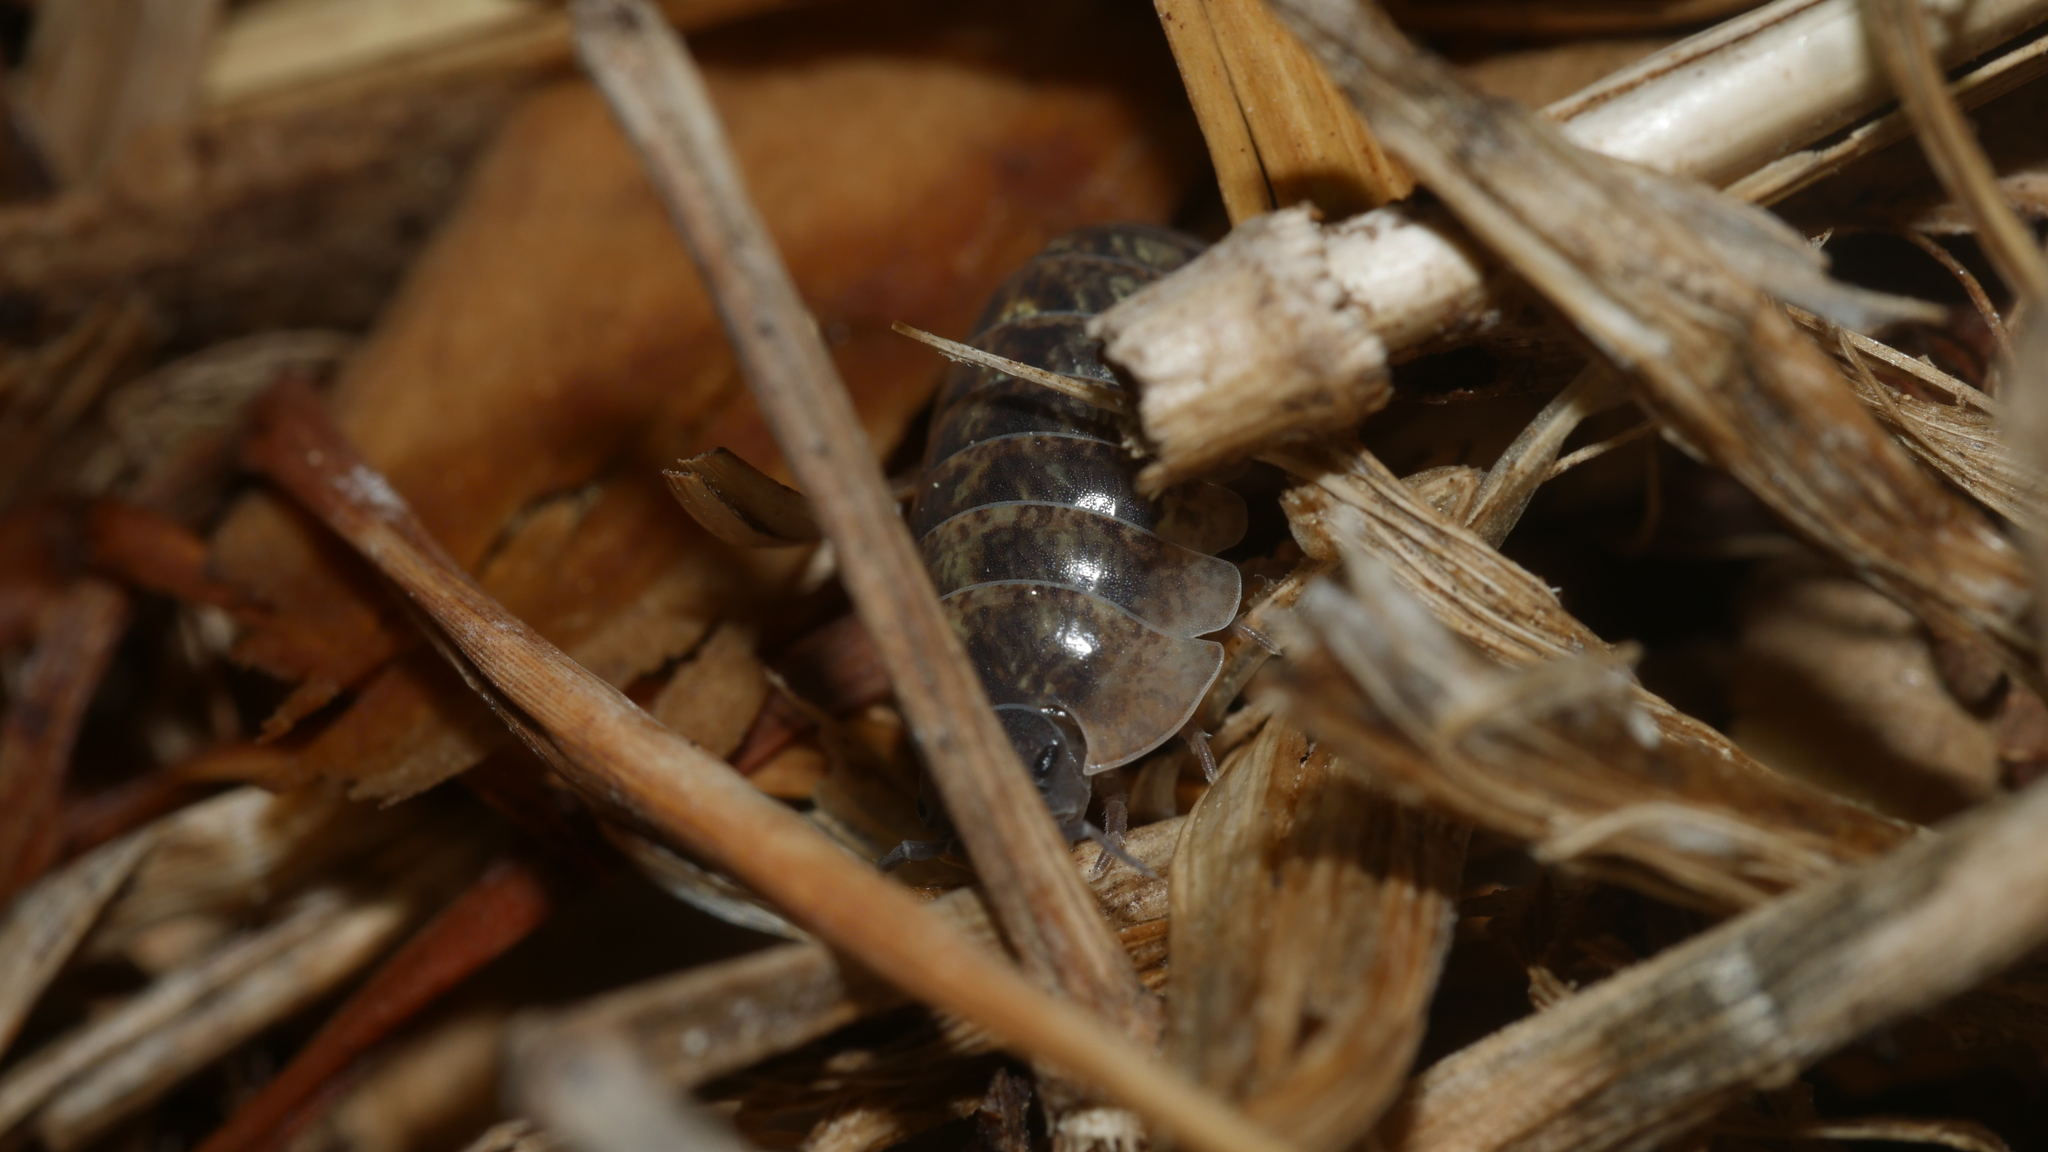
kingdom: Animalia
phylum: Arthropoda
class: Malacostraca
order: Isopoda
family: Armadillidiidae
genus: Armadillidium
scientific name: Armadillidium vulgare
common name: Common pill woodlouse
